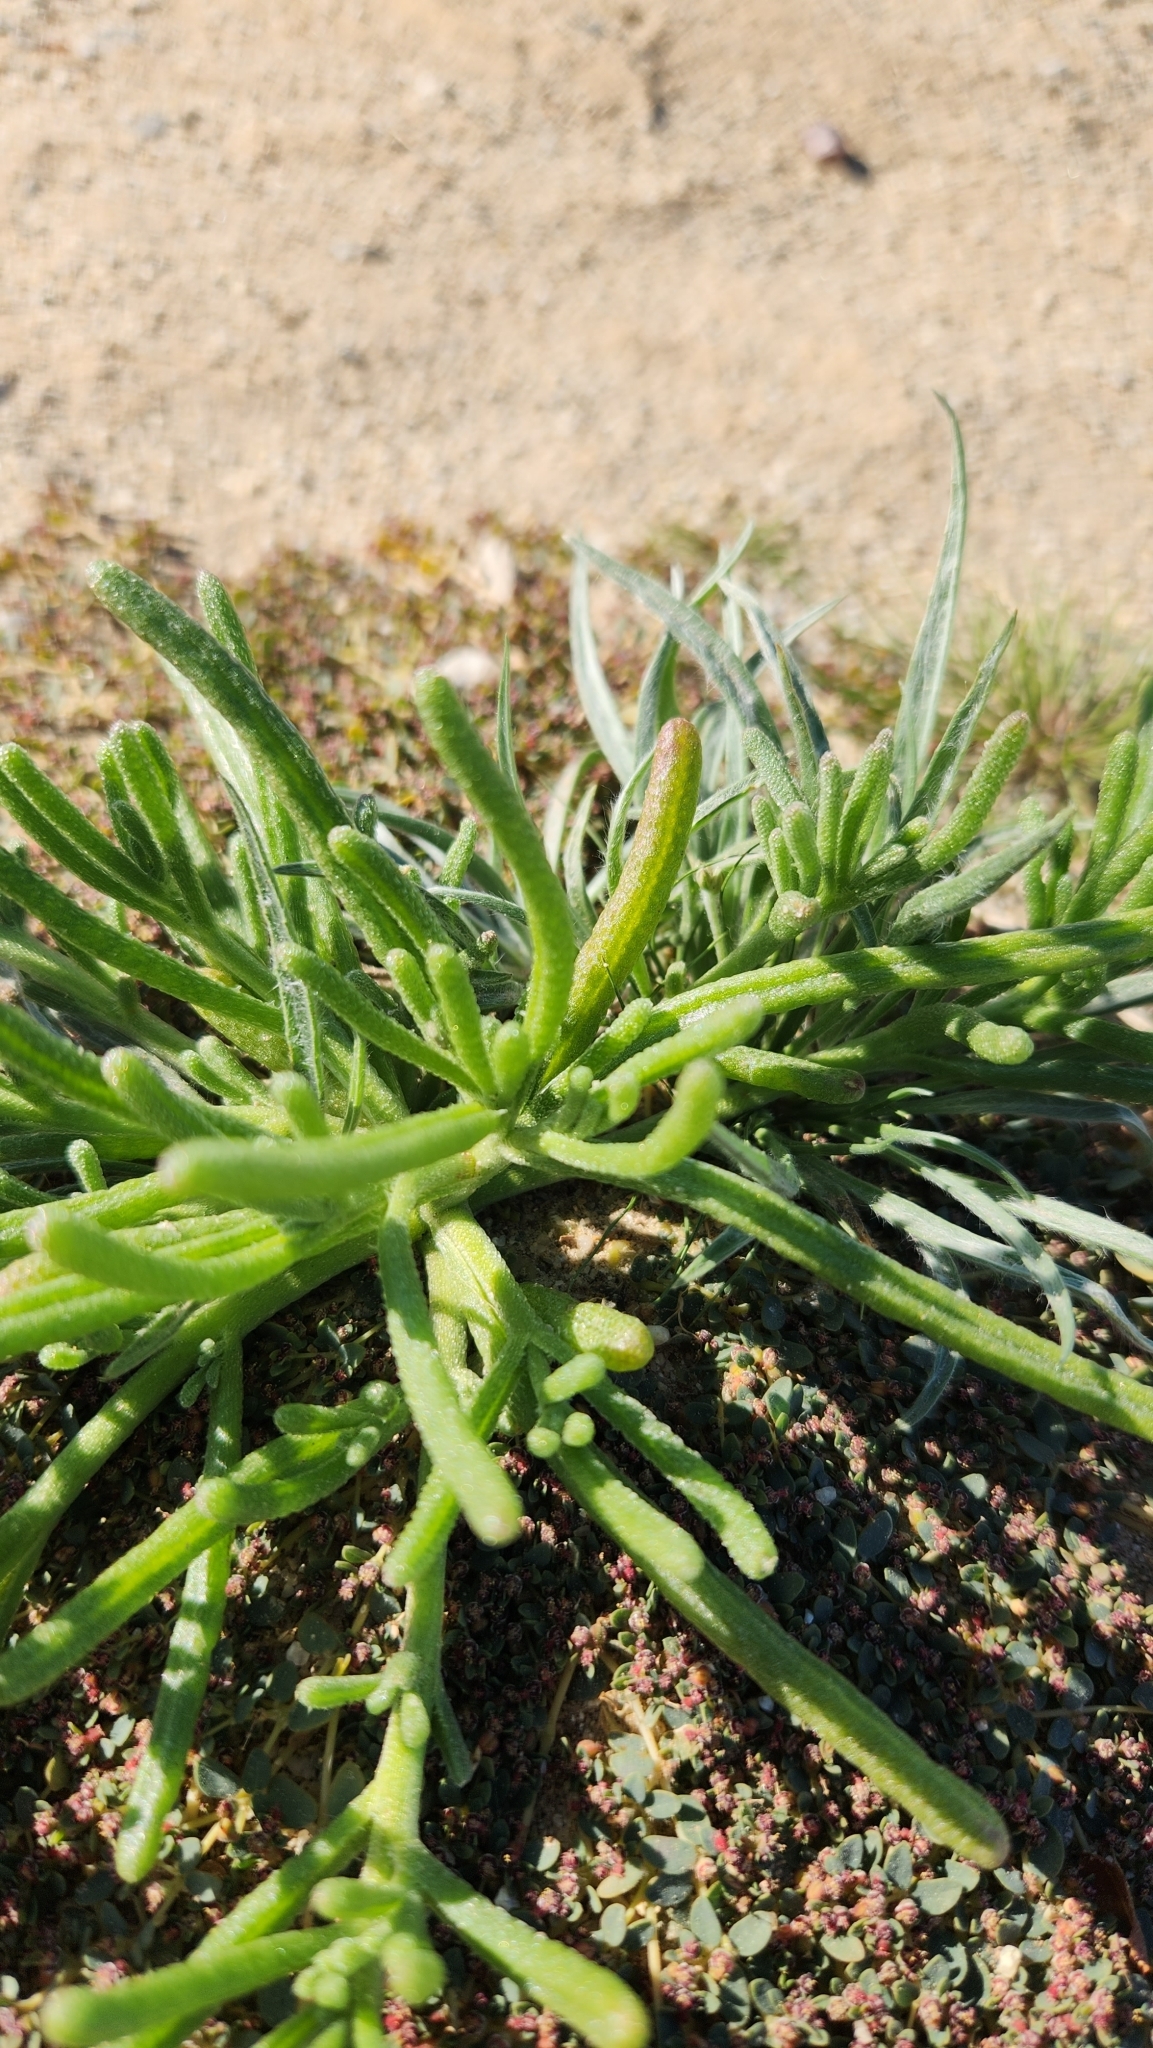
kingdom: Plantae
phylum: Tracheophyta
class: Magnoliopsida
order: Caryophyllales
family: Aizoaceae
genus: Mesembryanthemum
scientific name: Mesembryanthemum nodiflorum
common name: Slenderleaf iceplant
